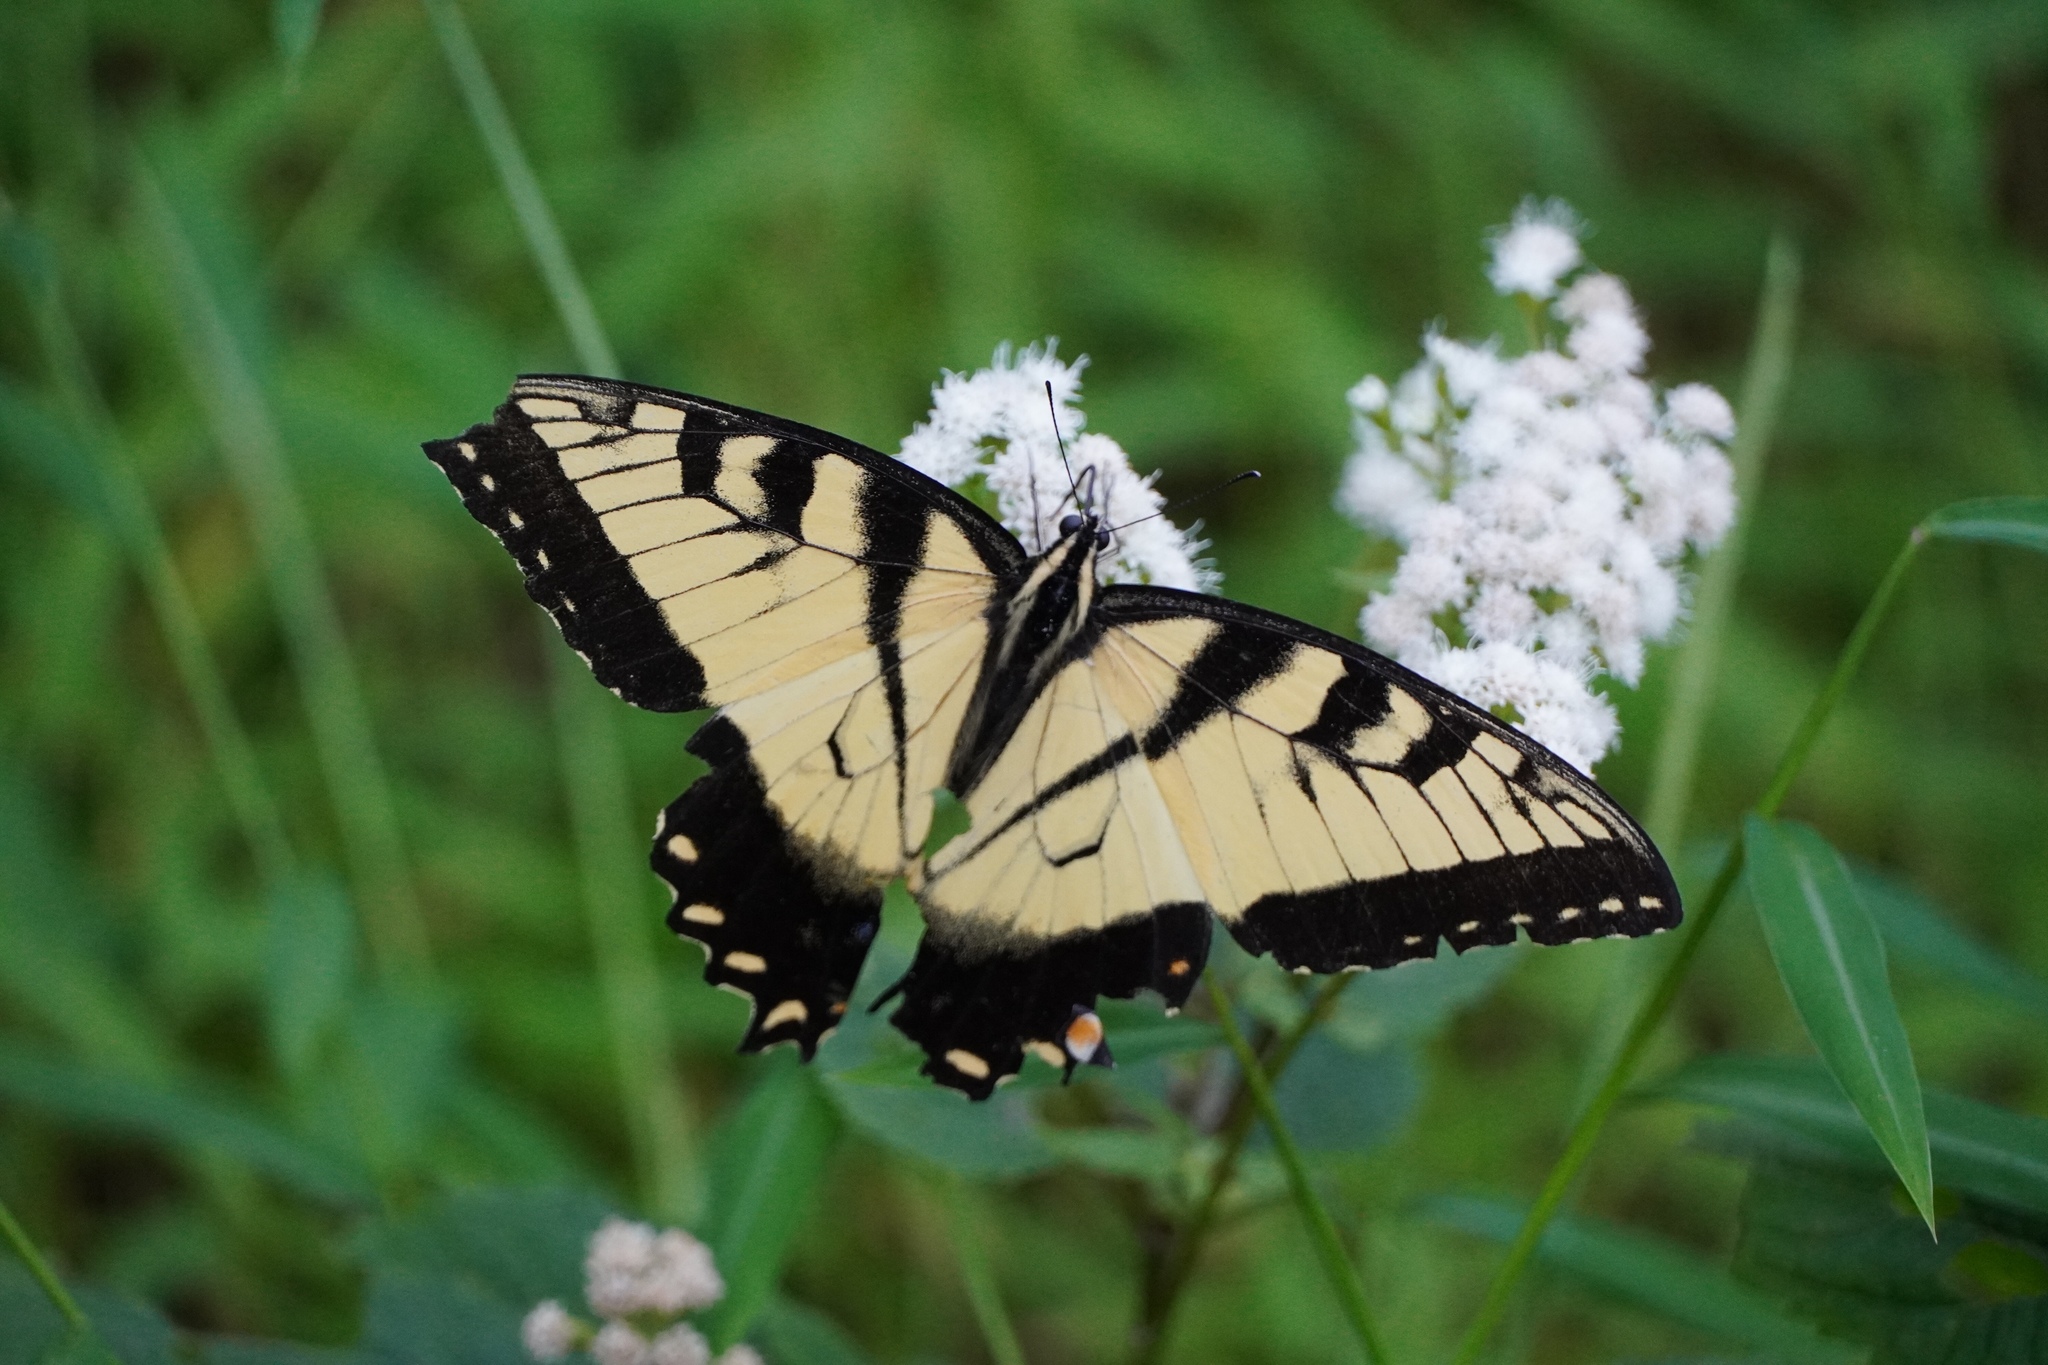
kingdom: Animalia
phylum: Arthropoda
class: Insecta
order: Lepidoptera
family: Papilionidae
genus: Papilio
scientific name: Papilio glaucus
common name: Tiger swallowtail
